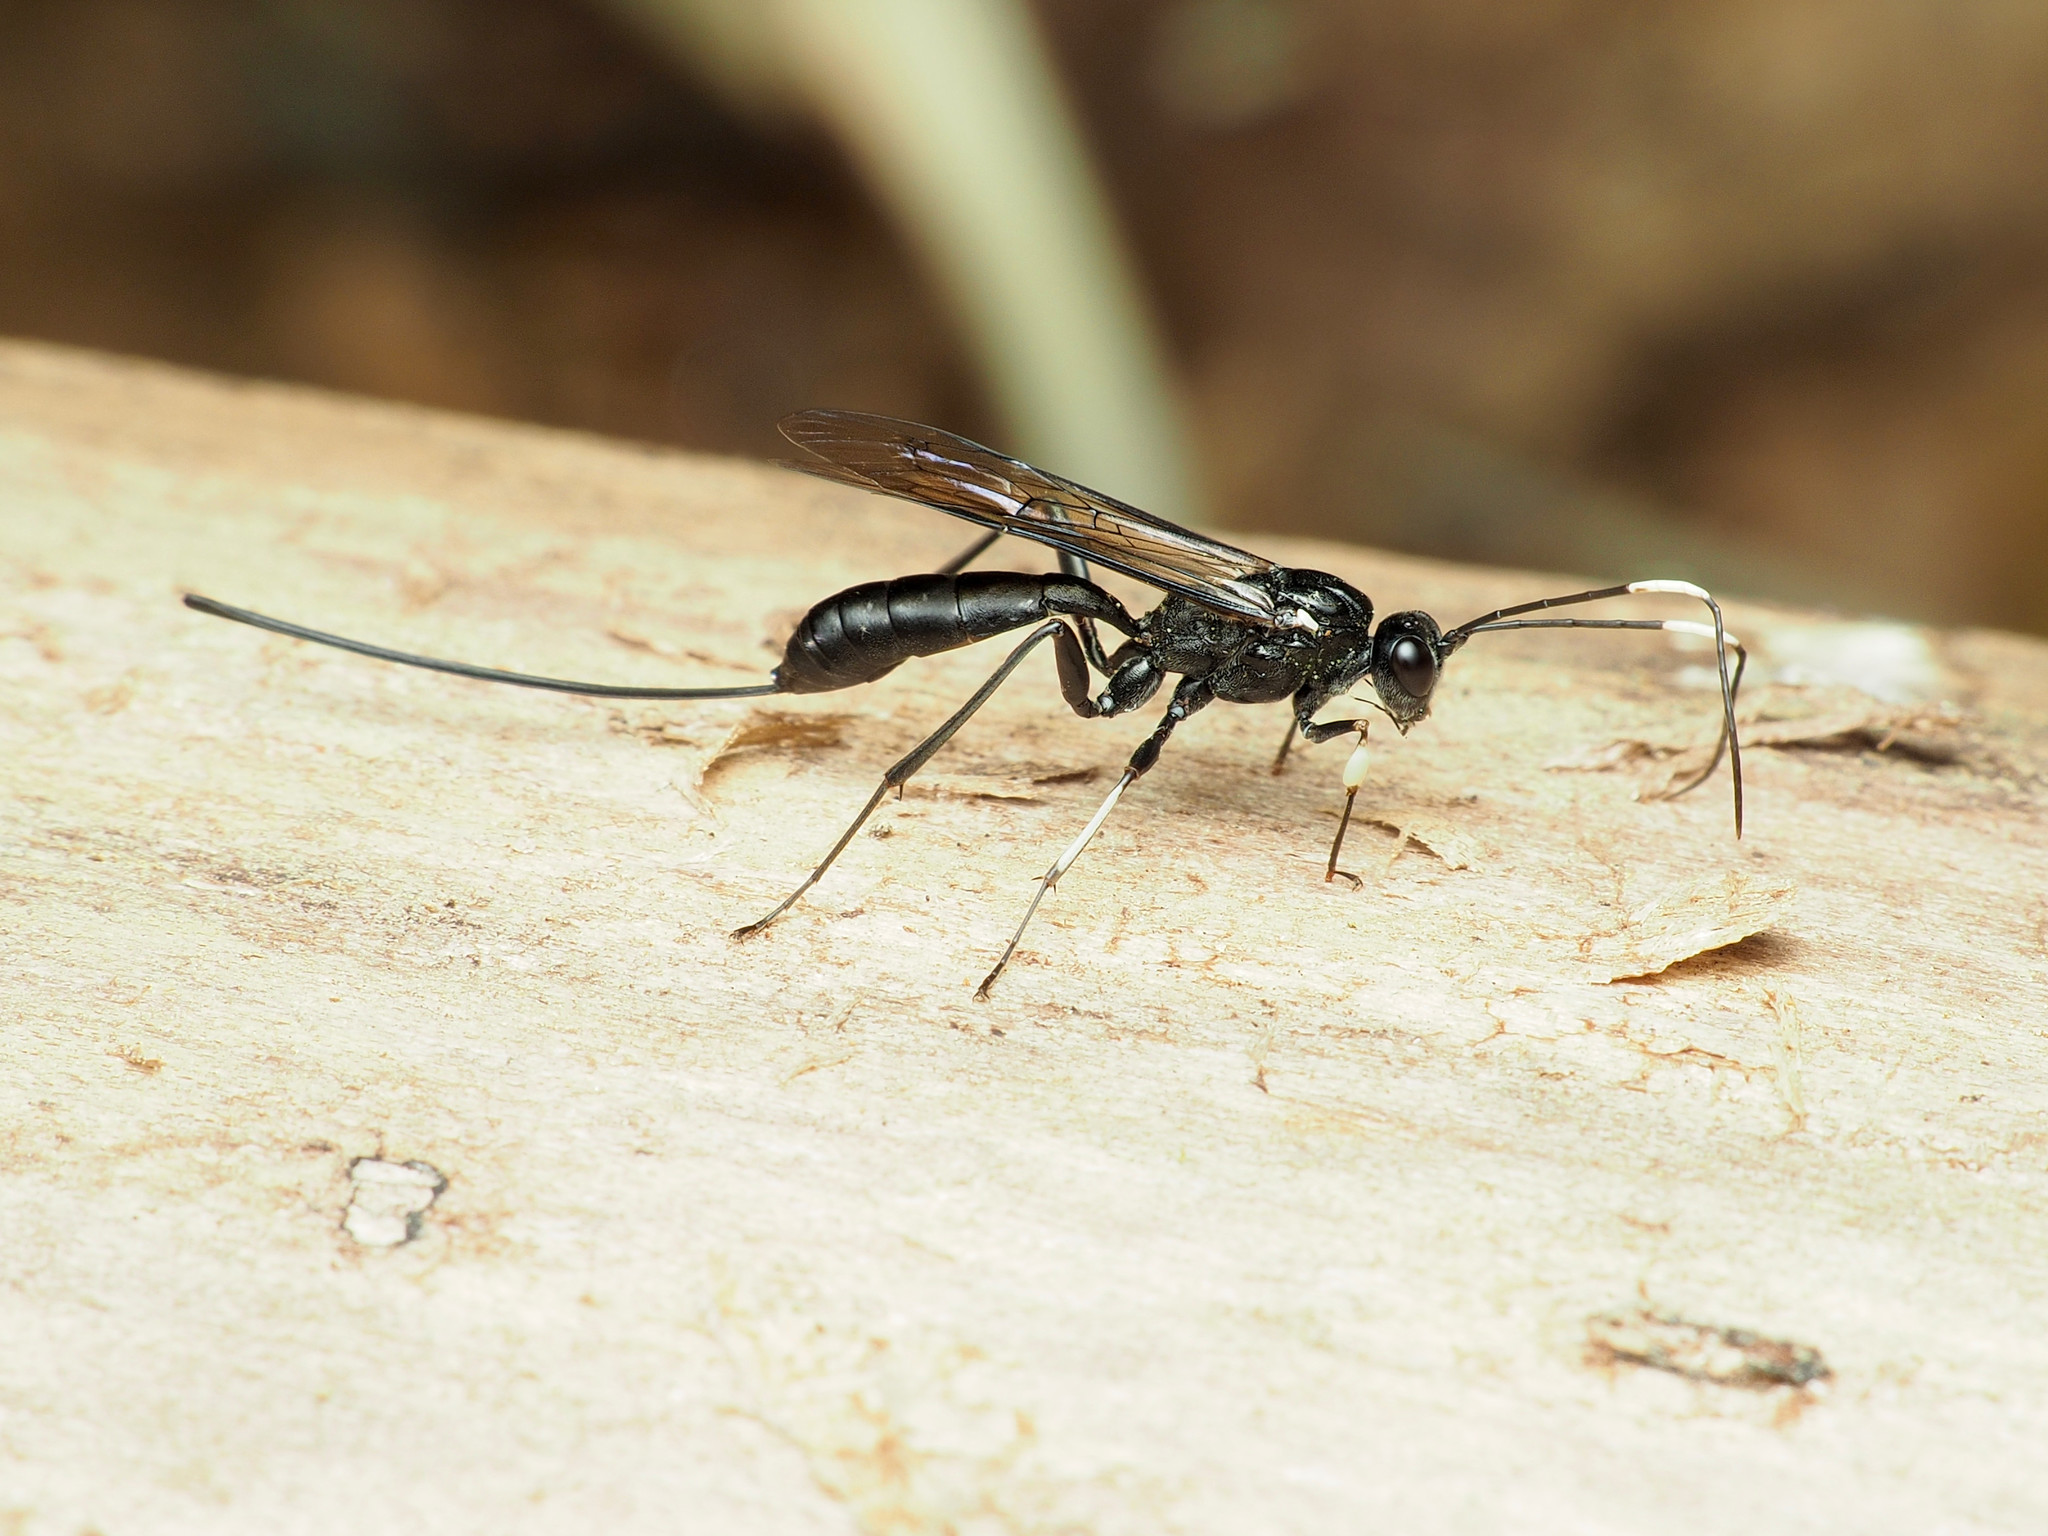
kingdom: Animalia
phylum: Arthropoda
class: Insecta
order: Hymenoptera
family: Ichneumonidae
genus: Echthrus
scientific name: Echthrus niger
